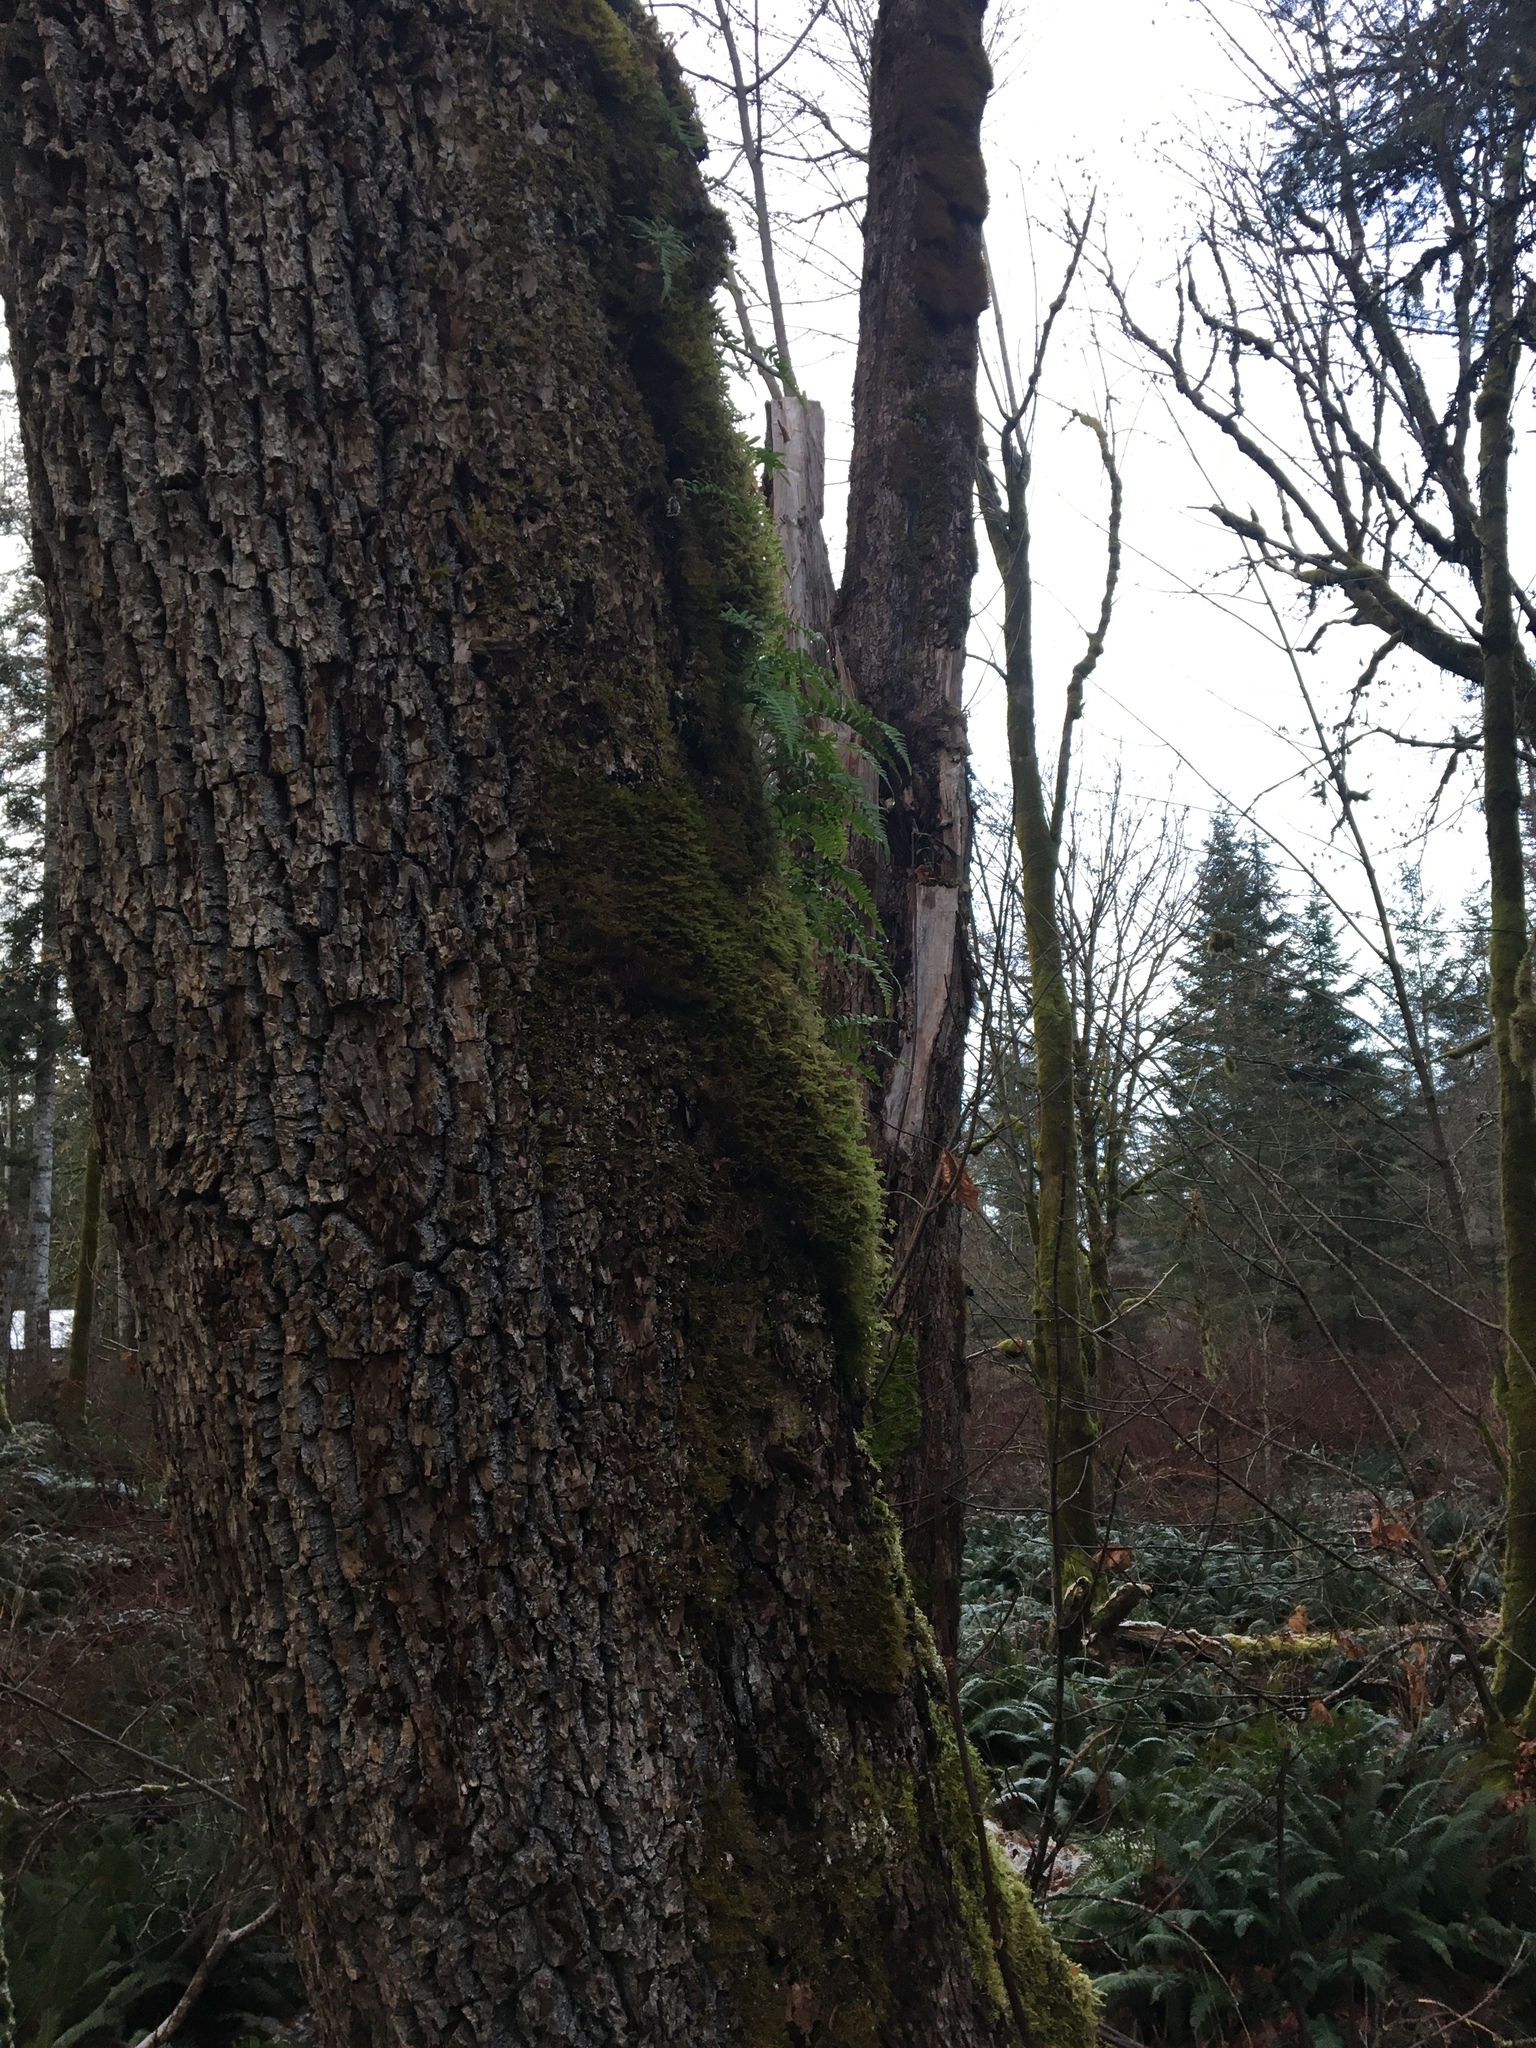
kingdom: Plantae
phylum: Tracheophyta
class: Polypodiopsida
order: Polypodiales
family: Polypodiaceae
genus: Polypodium
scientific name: Polypodium glycyrrhiza
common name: Licorice fern
